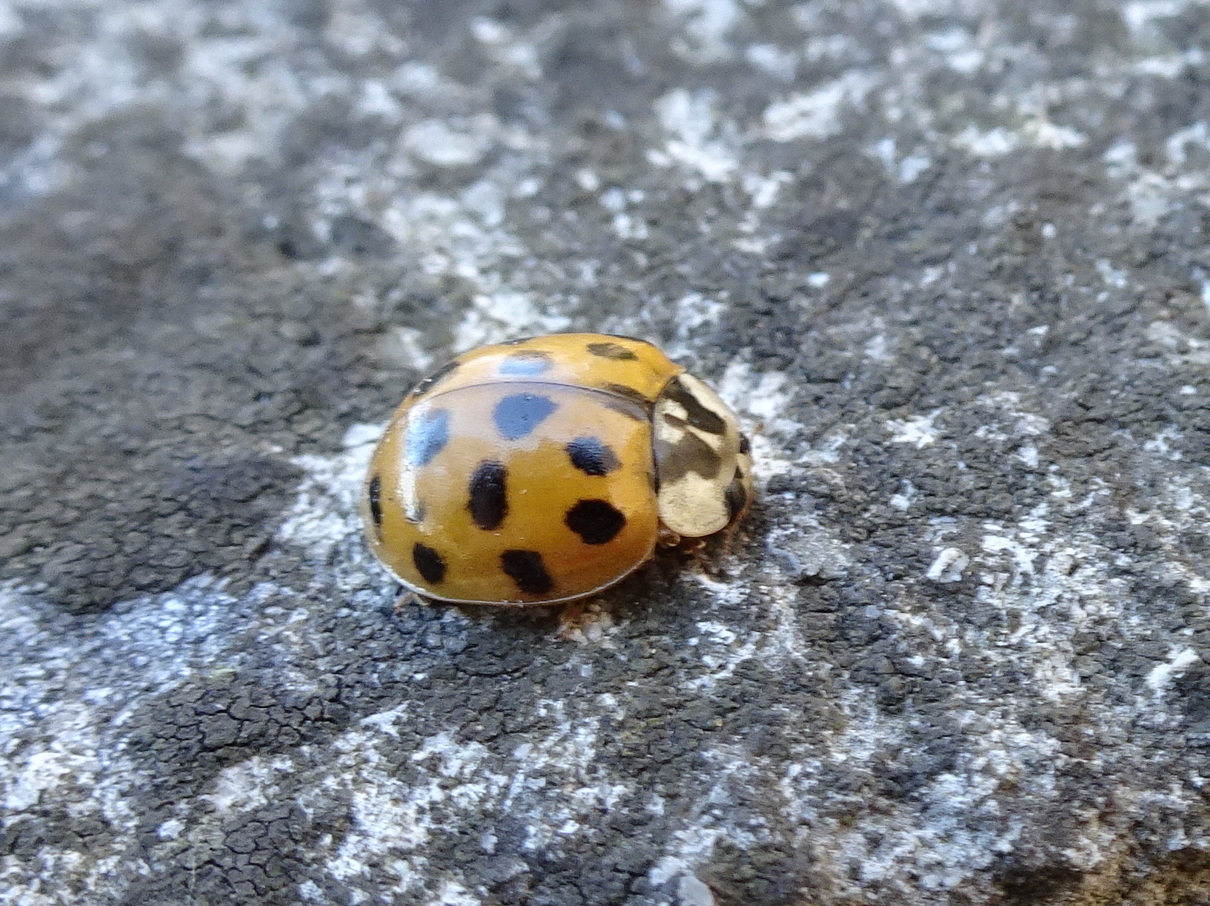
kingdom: Animalia
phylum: Arthropoda
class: Insecta
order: Coleoptera
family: Coccinellidae
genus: Harmonia
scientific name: Harmonia axyridis
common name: Harlequin ladybird
